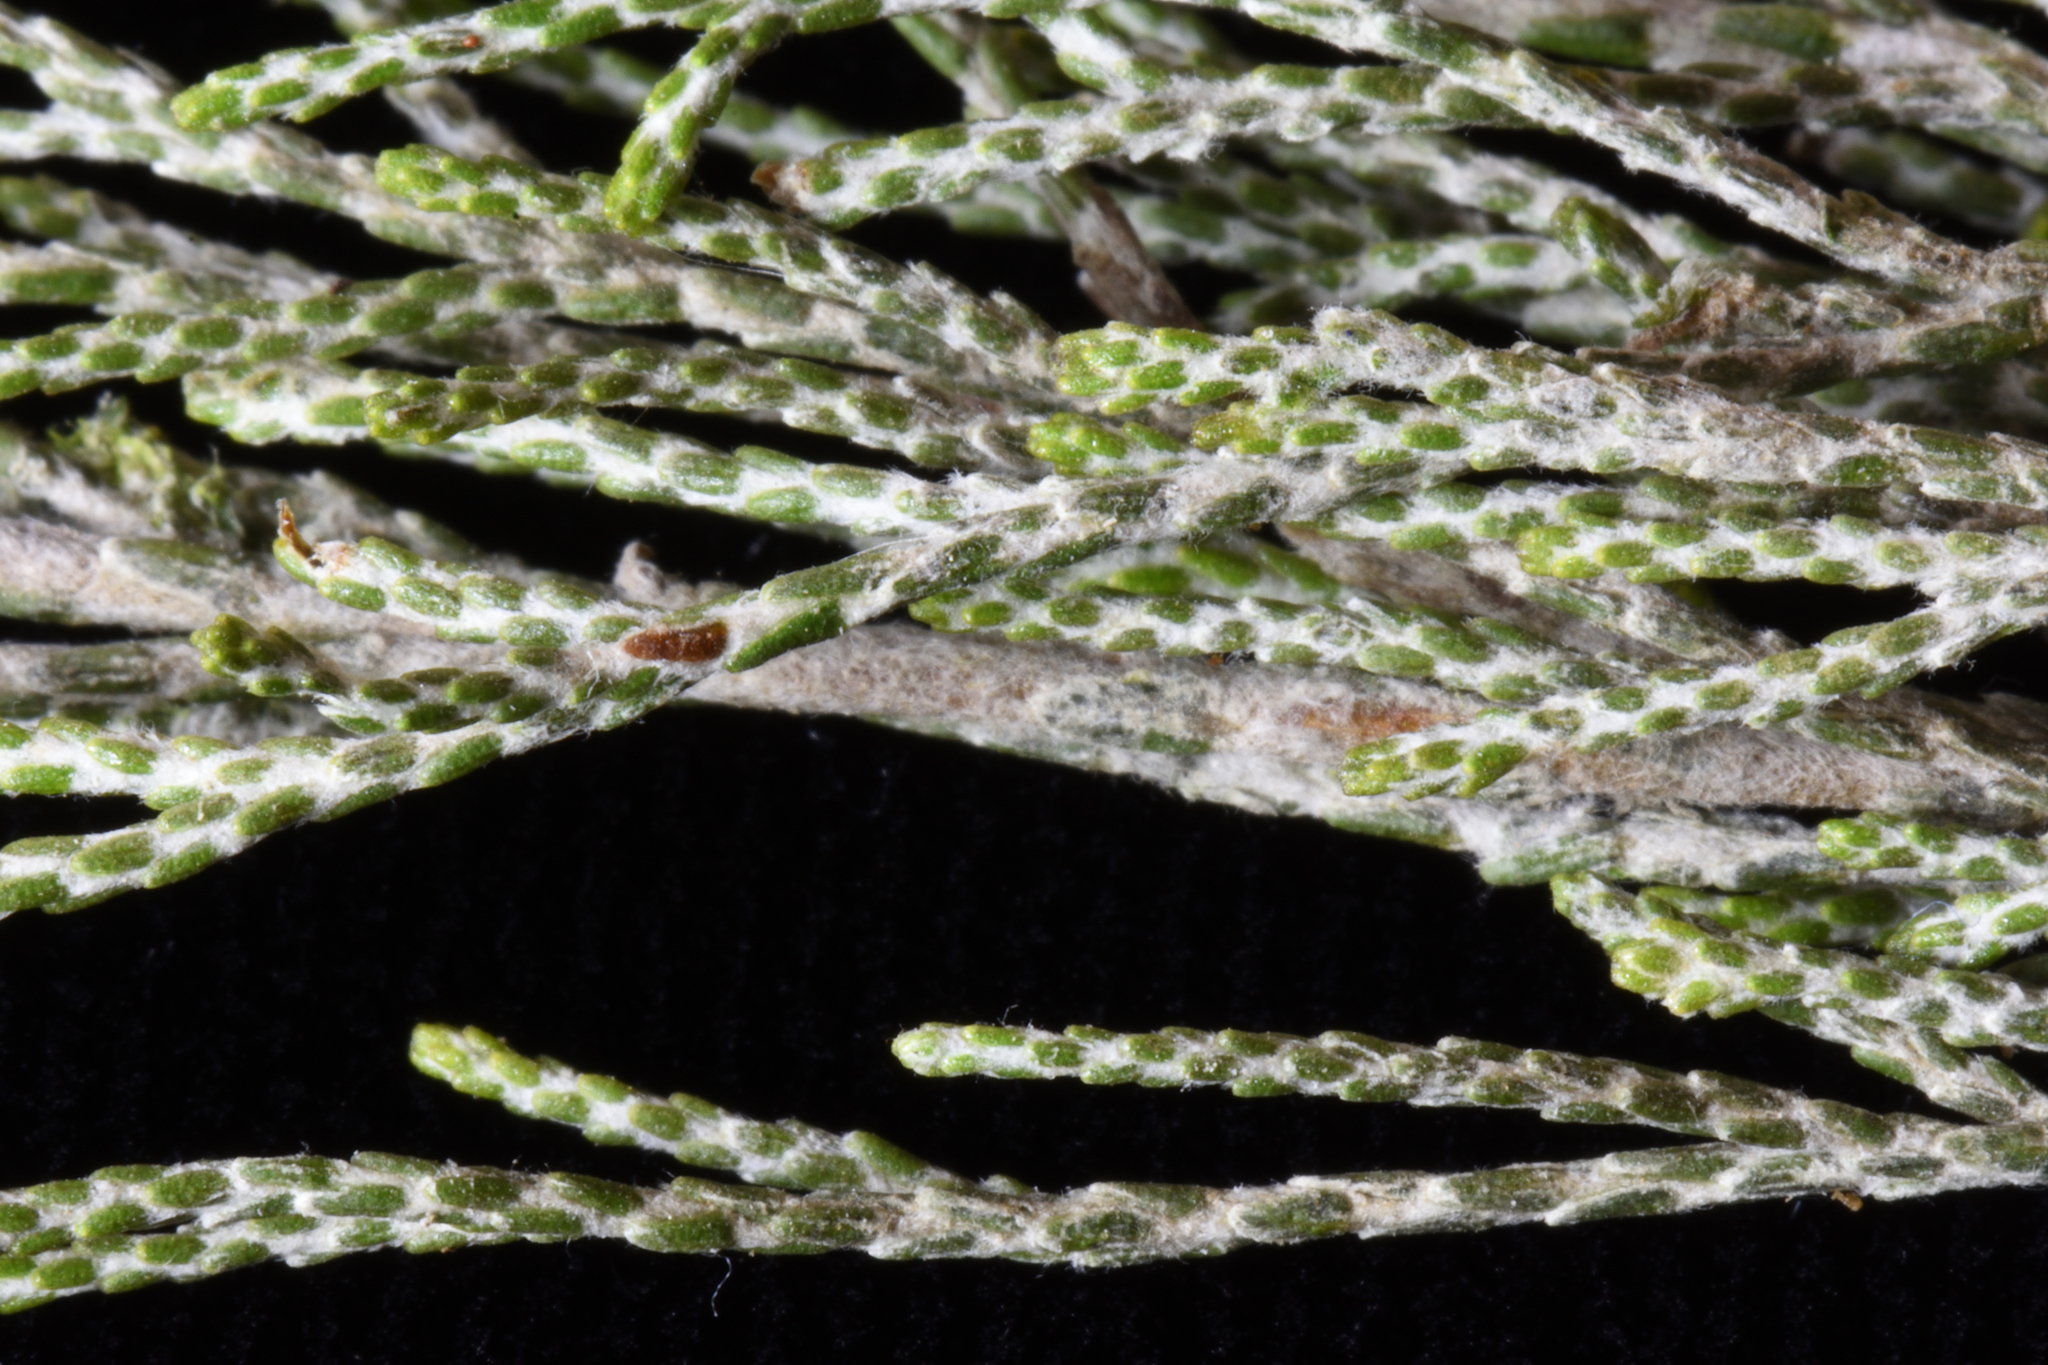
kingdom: Plantae
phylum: Tracheophyta
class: Magnoliopsida
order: Asterales
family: Asteraceae
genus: Dicerothamnus
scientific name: Dicerothamnus rhinocerotis
